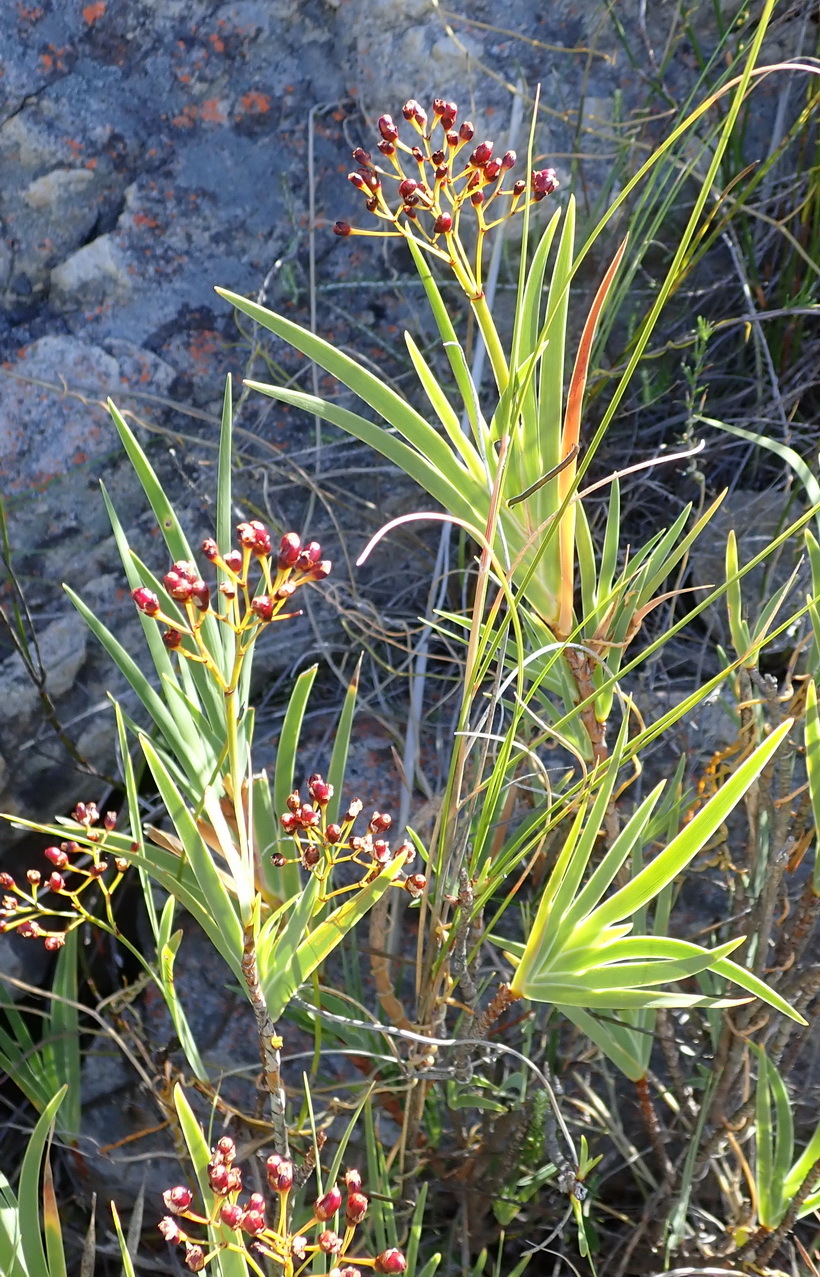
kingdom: Plantae
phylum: Tracheophyta
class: Liliopsida
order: Asparagales
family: Iridaceae
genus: Nivenia
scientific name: Nivenia parviflora
